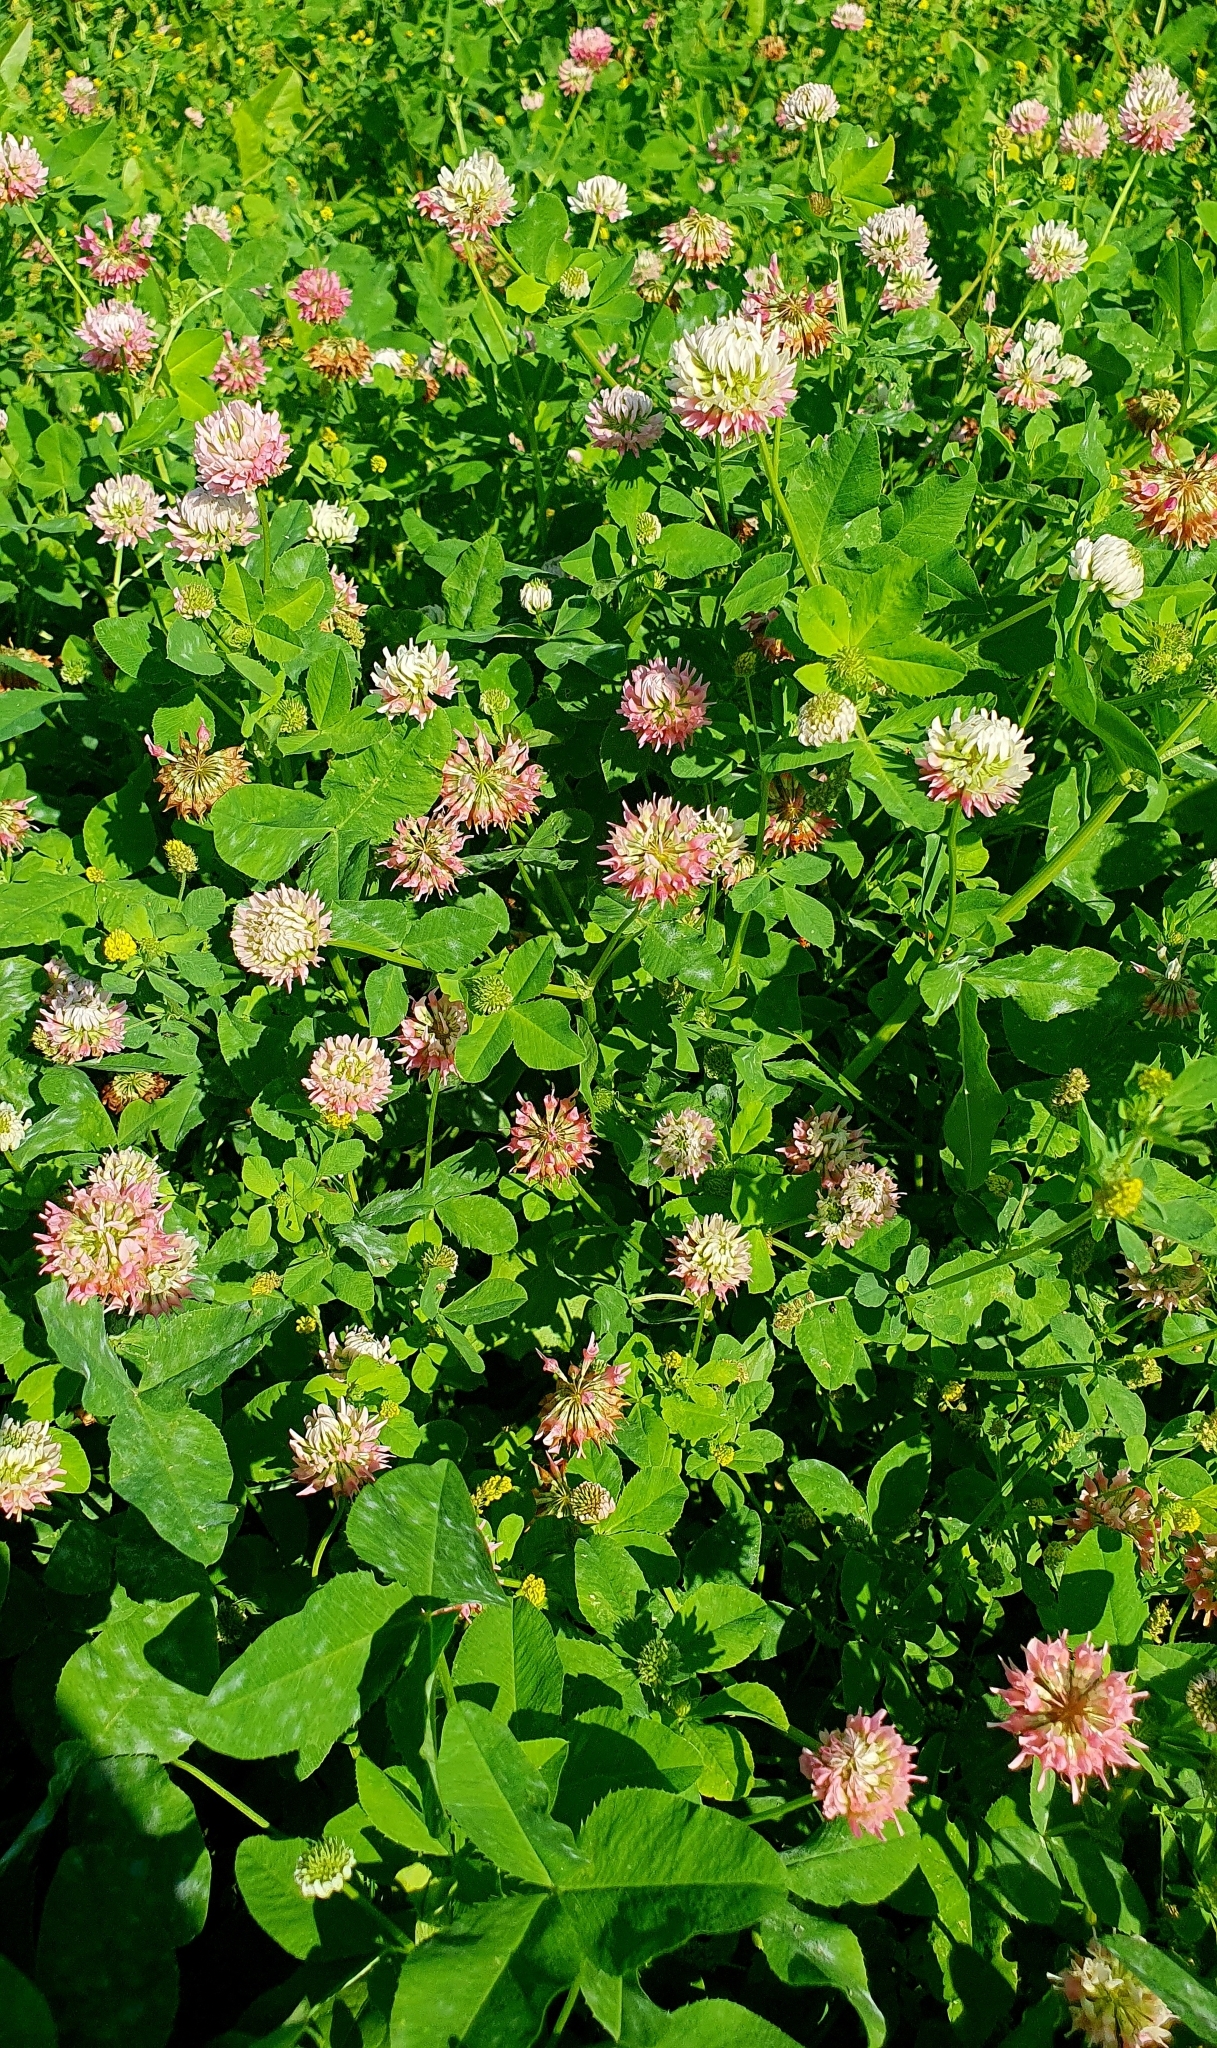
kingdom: Plantae
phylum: Tracheophyta
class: Magnoliopsida
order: Fabales
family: Fabaceae
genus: Trifolium
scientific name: Trifolium hybridum
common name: Alsike clover
